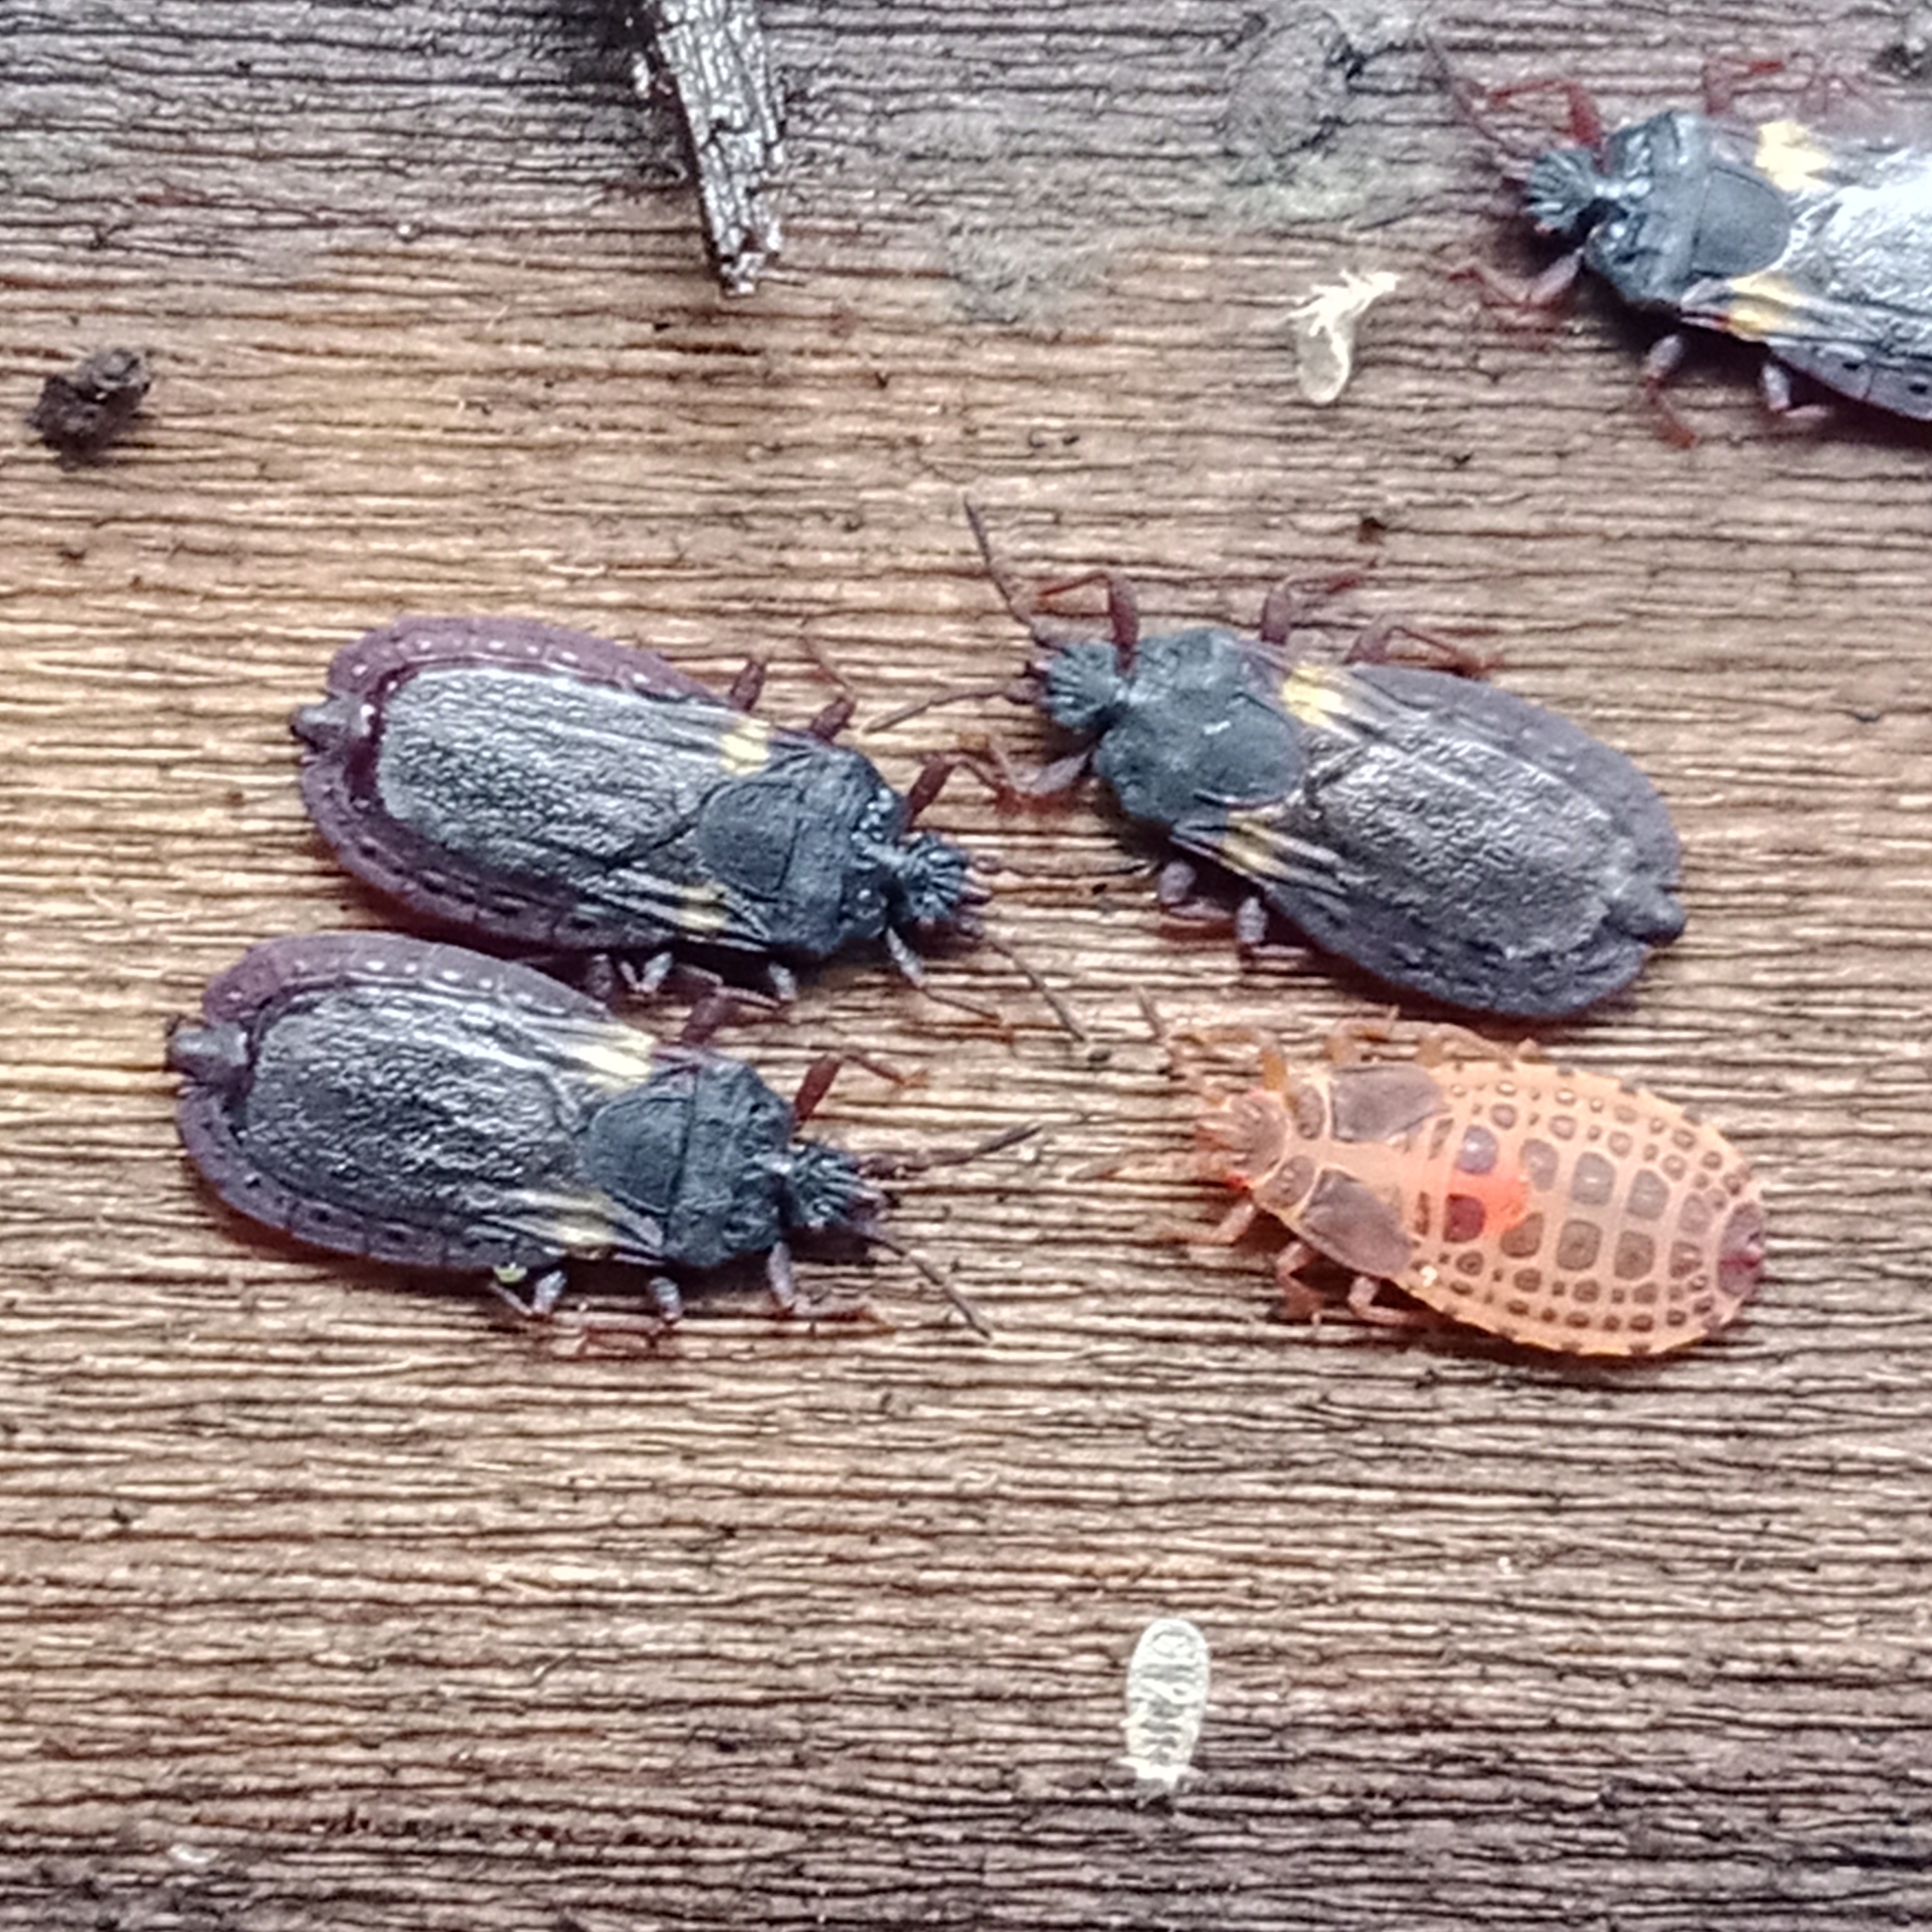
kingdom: Animalia
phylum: Arthropoda
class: Insecta
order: Hemiptera
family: Aradidae
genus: Aneurus
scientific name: Aneurus avenius
